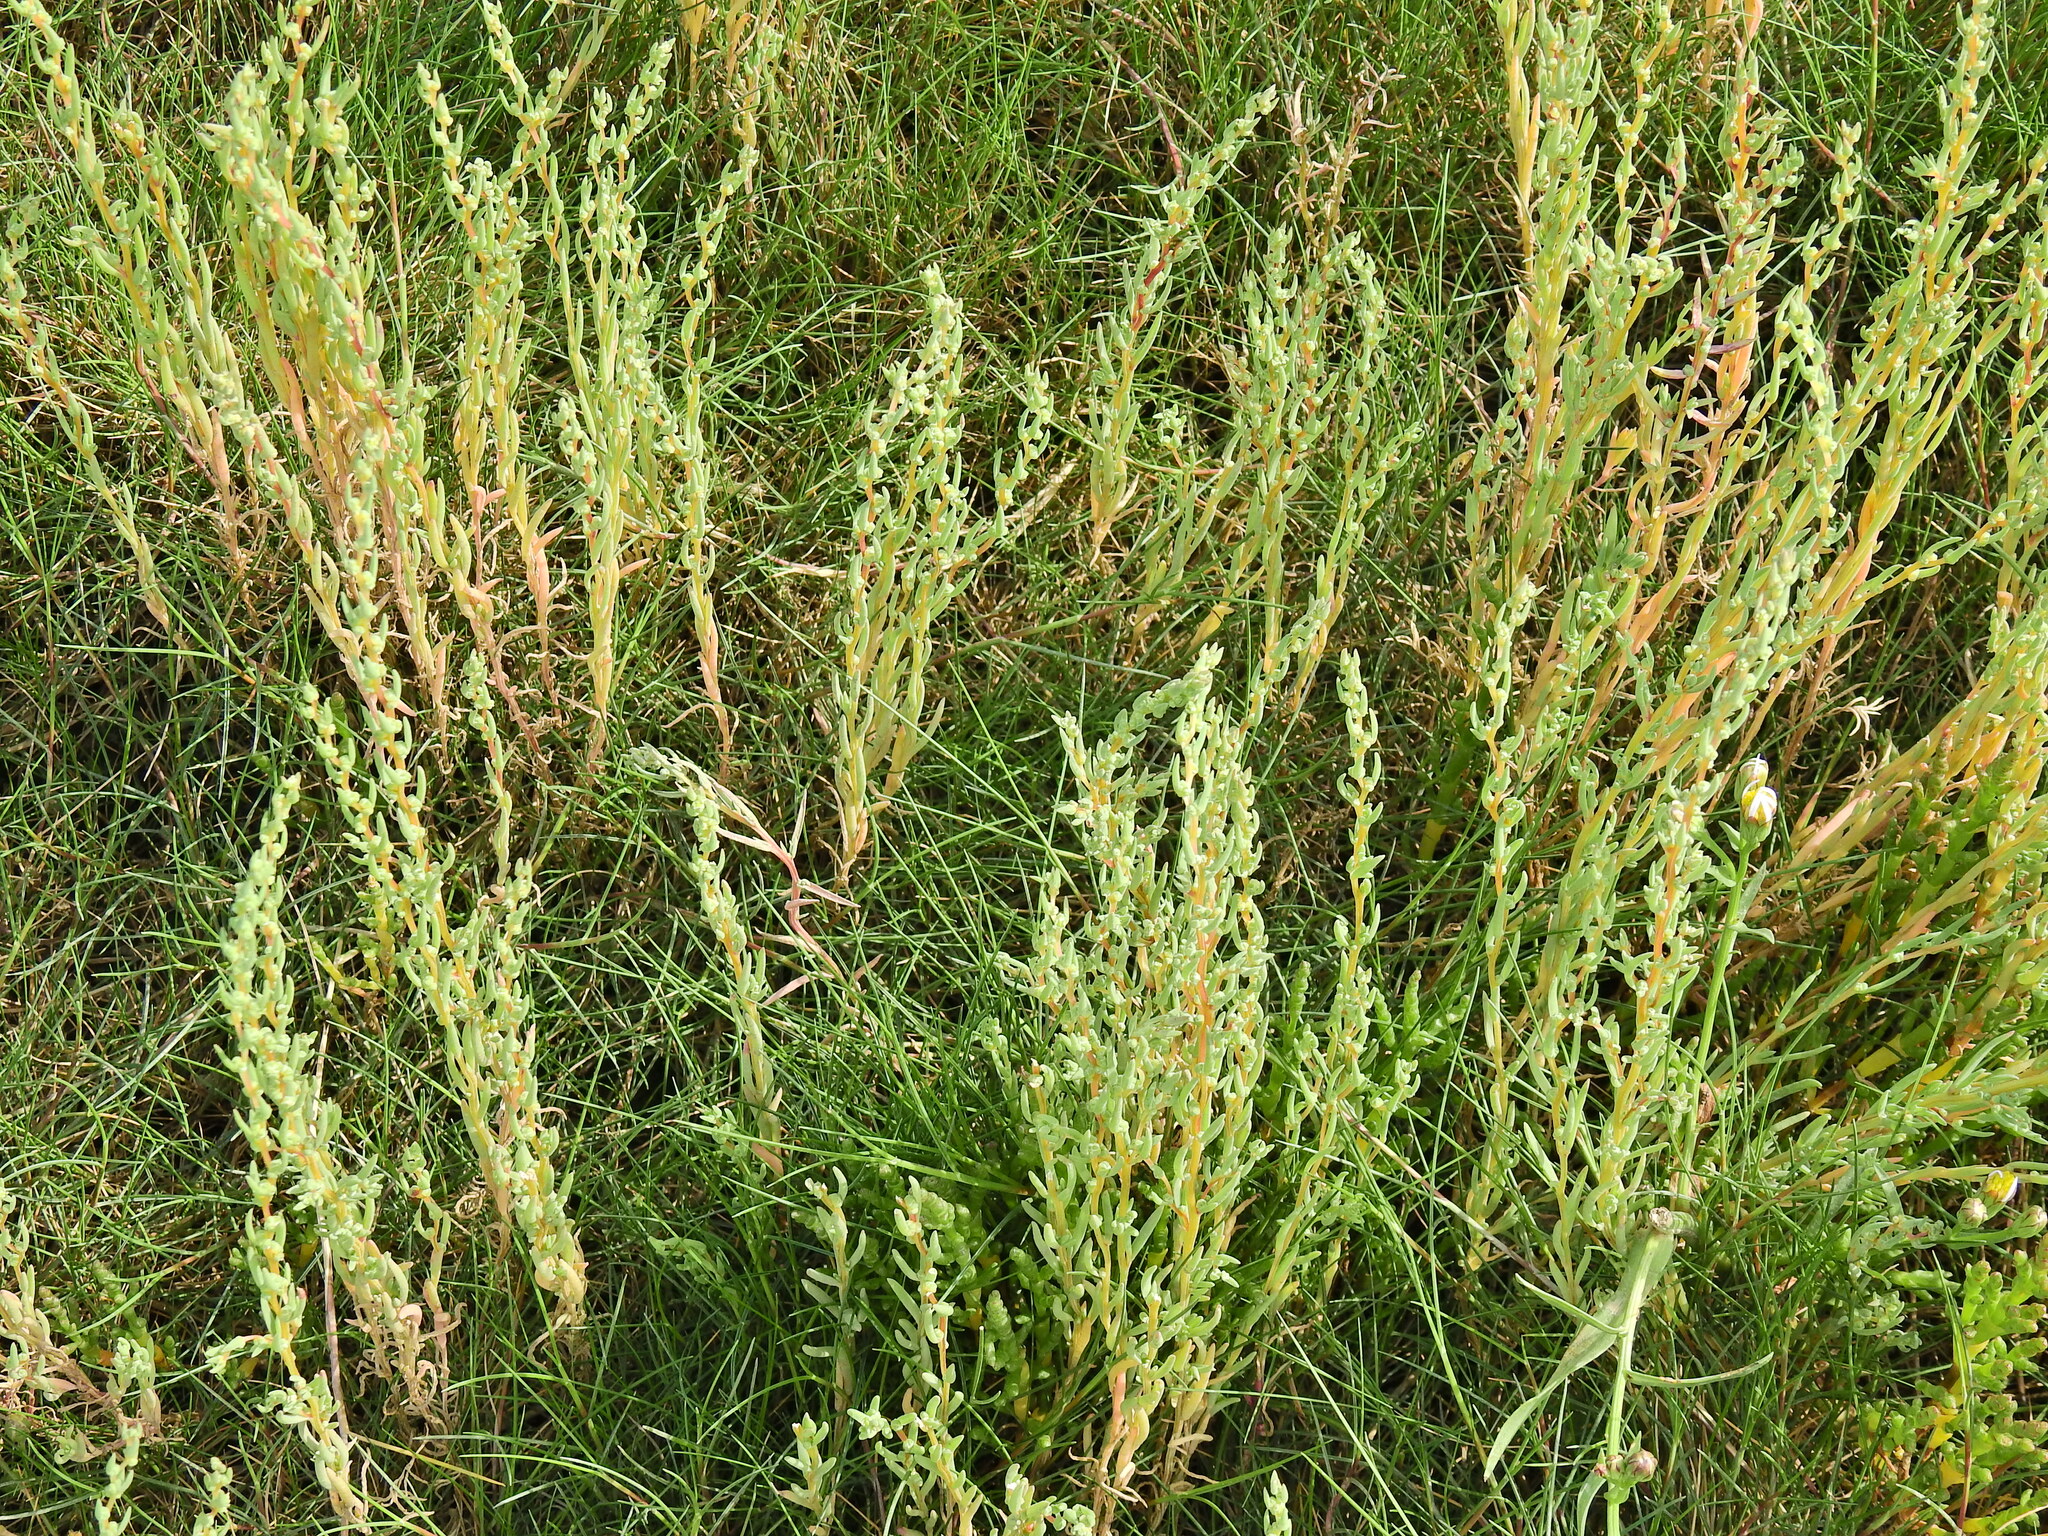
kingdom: Plantae
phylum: Tracheophyta
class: Magnoliopsida
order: Caryophyllales
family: Amaranthaceae
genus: Suaeda
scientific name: Suaeda maritima
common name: Annual sea-blite
